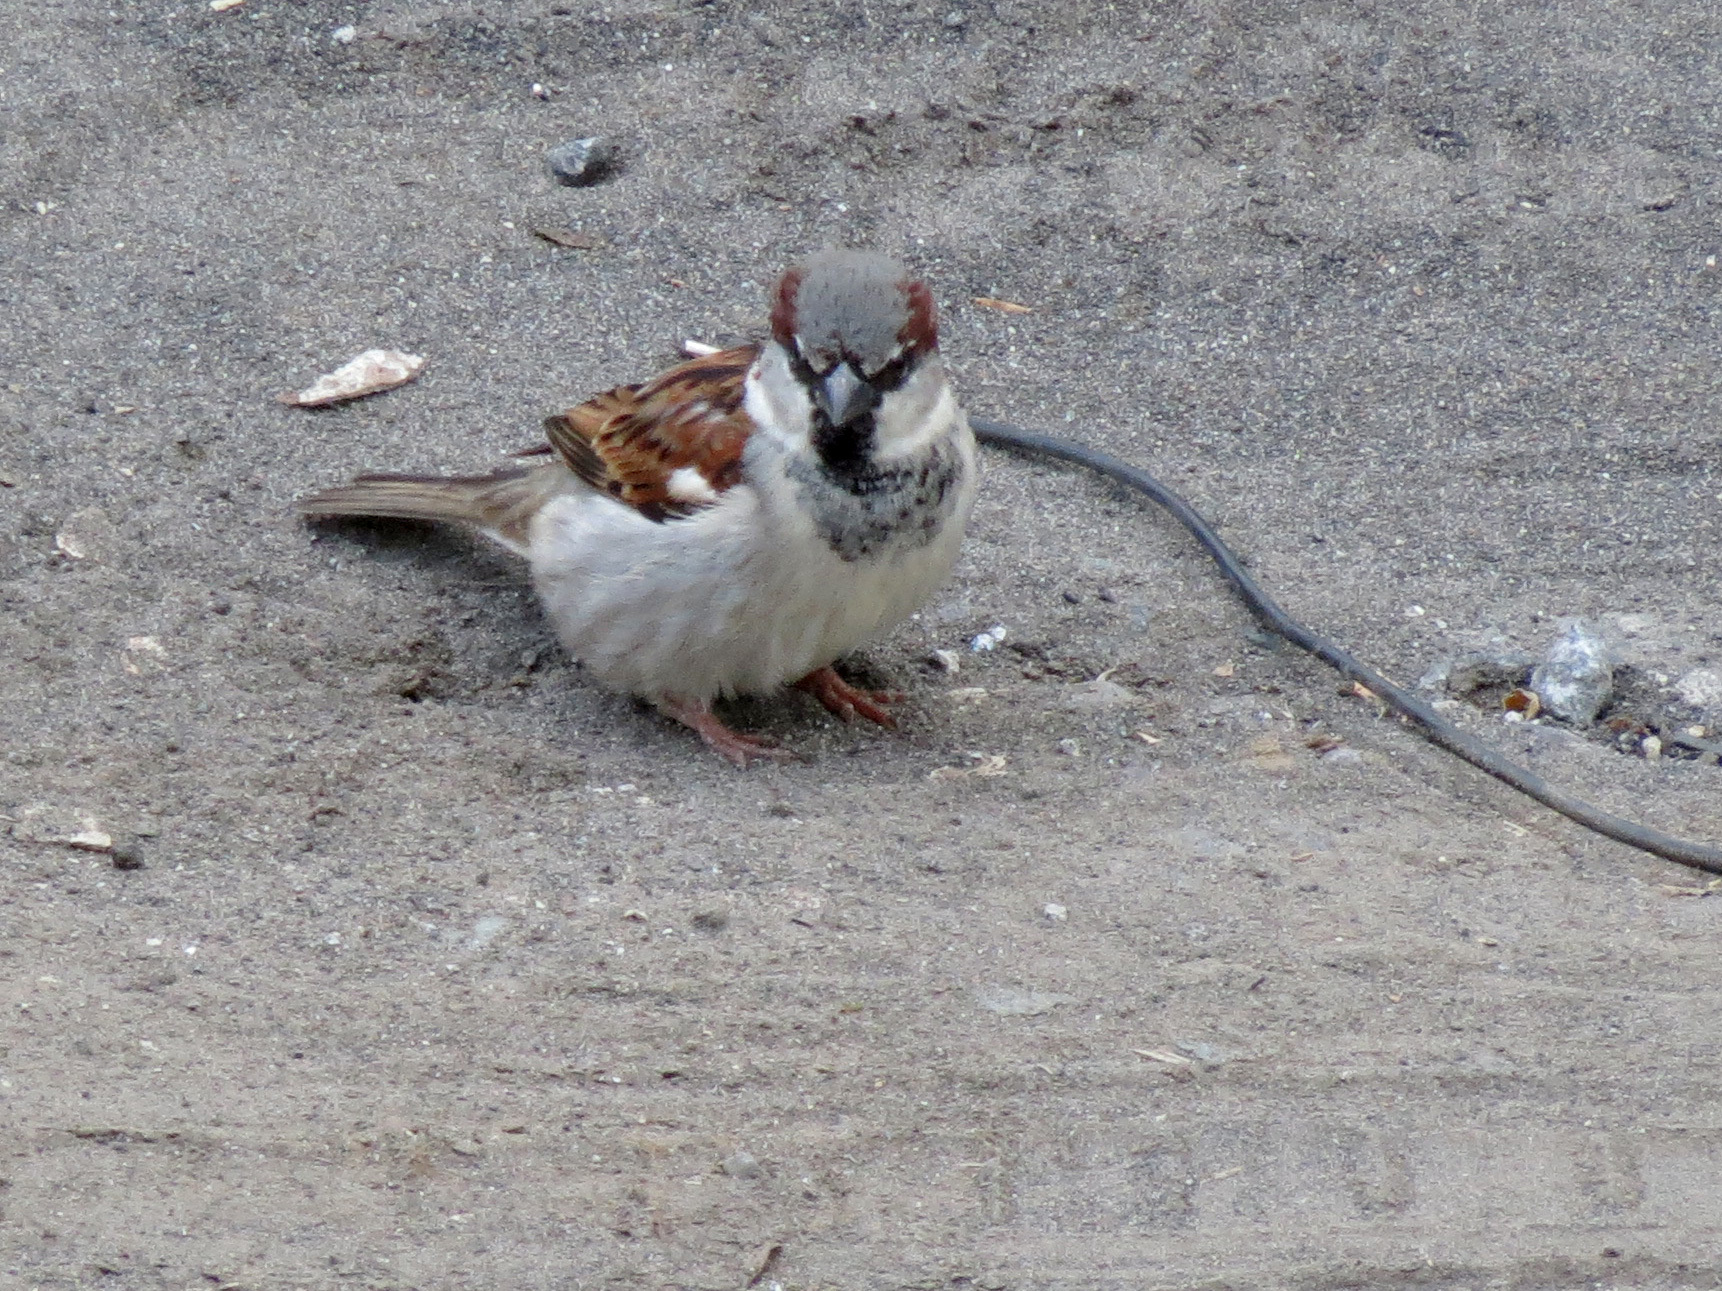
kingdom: Animalia
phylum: Chordata
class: Aves
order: Passeriformes
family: Passeridae
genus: Passer
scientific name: Passer domesticus
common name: House sparrow
